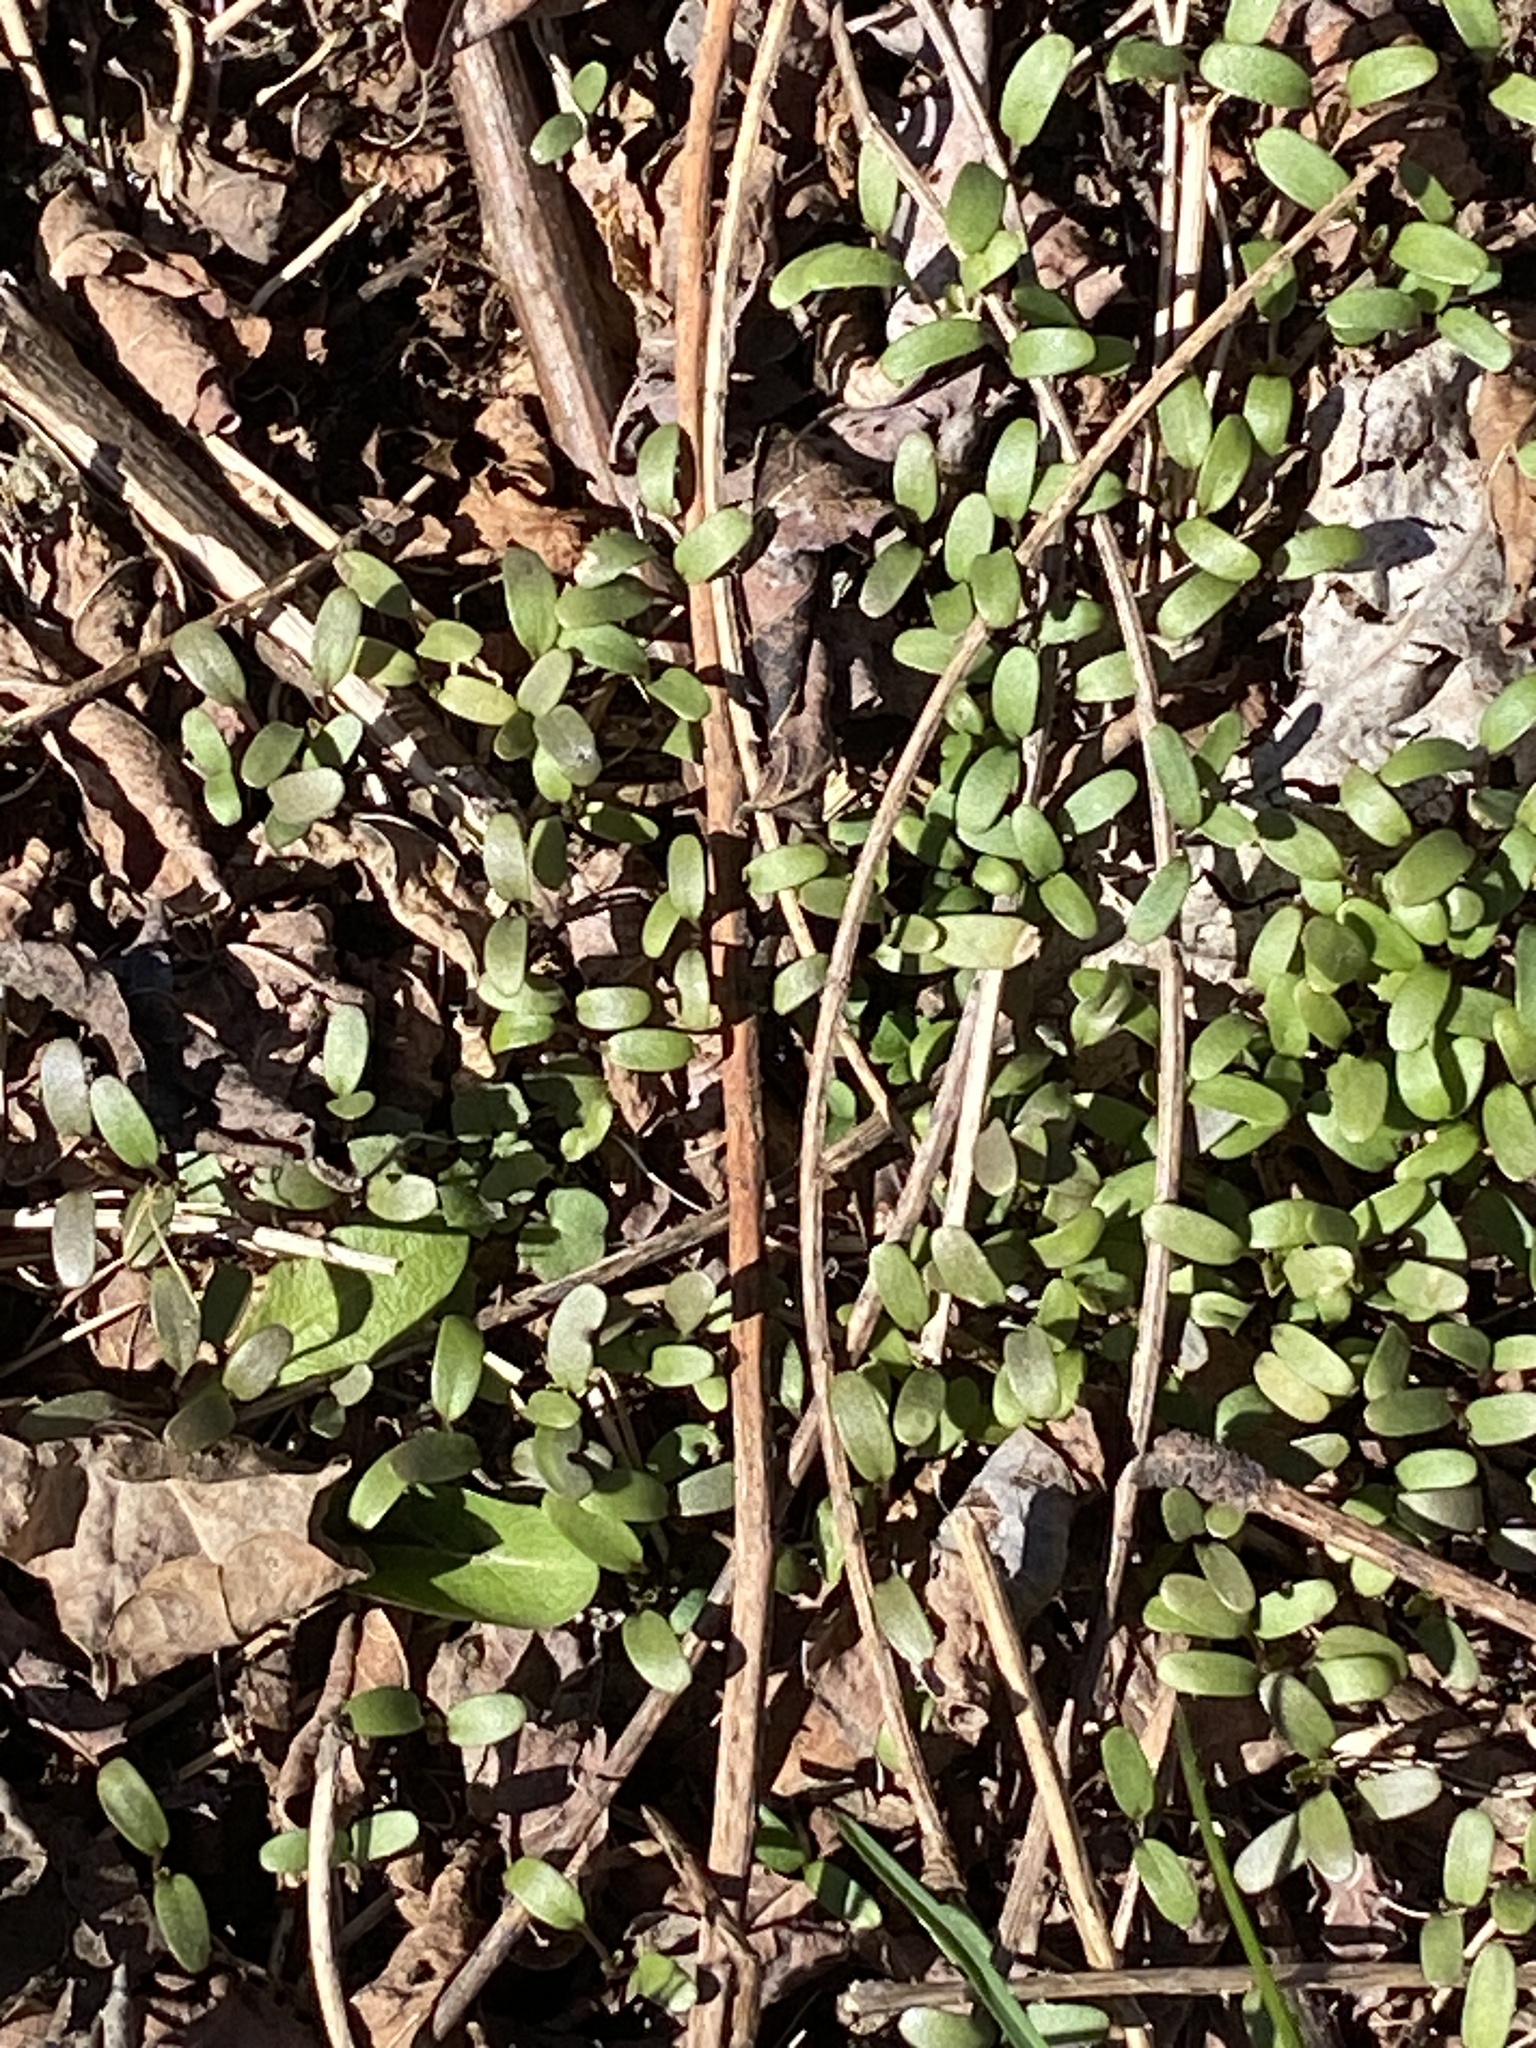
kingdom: Plantae
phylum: Tracheophyta
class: Magnoliopsida
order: Brassicales
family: Brassicaceae
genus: Alliaria
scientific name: Alliaria petiolata
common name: Garlic mustard
